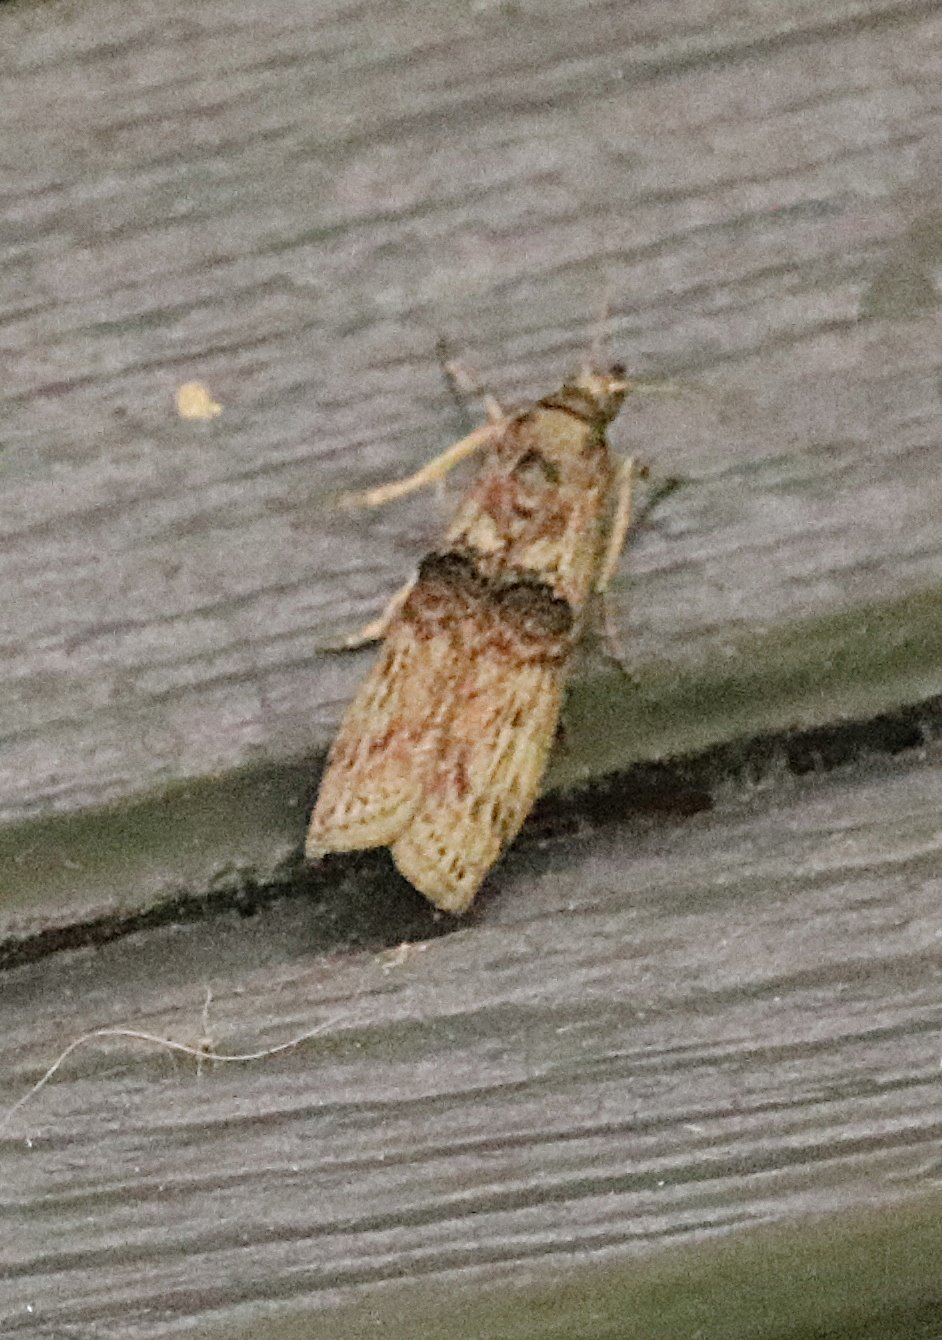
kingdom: Animalia
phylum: Arthropoda
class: Insecta
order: Lepidoptera
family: Pyralidae
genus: Nephopterix
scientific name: Nephopterix angustella
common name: Spindle knot-horn
